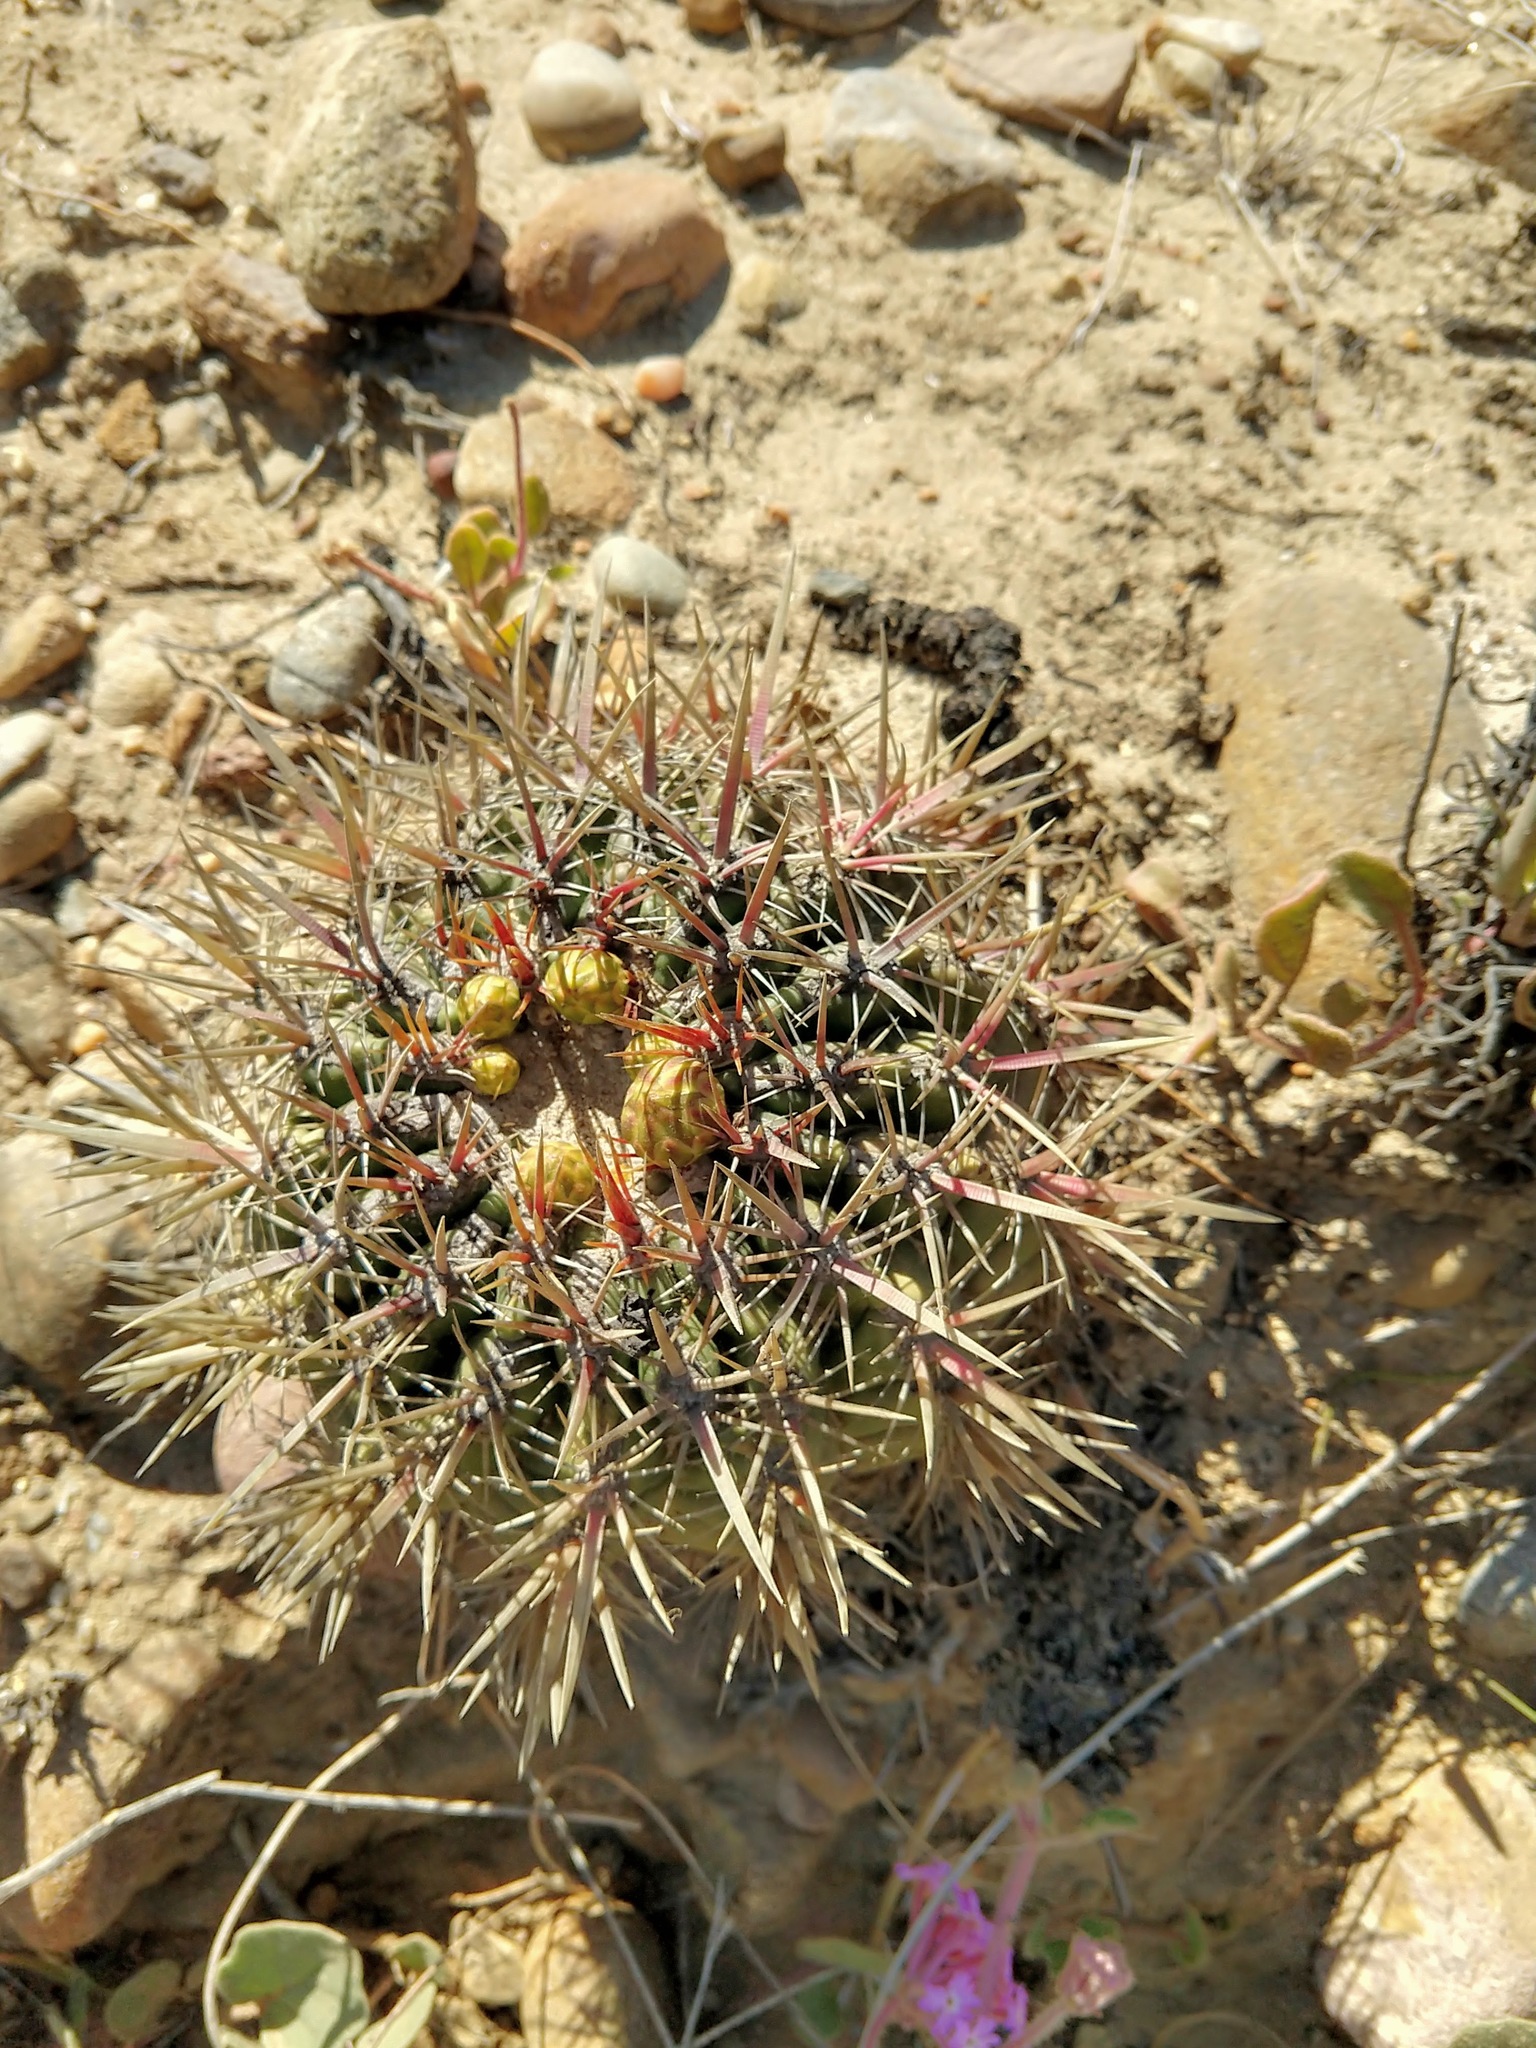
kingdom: Plantae
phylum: Tracheophyta
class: Magnoliopsida
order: Caryophyllales
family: Cactaceae
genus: Ferocactus
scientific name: Ferocactus viridescens
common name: San diego barrel cactus
